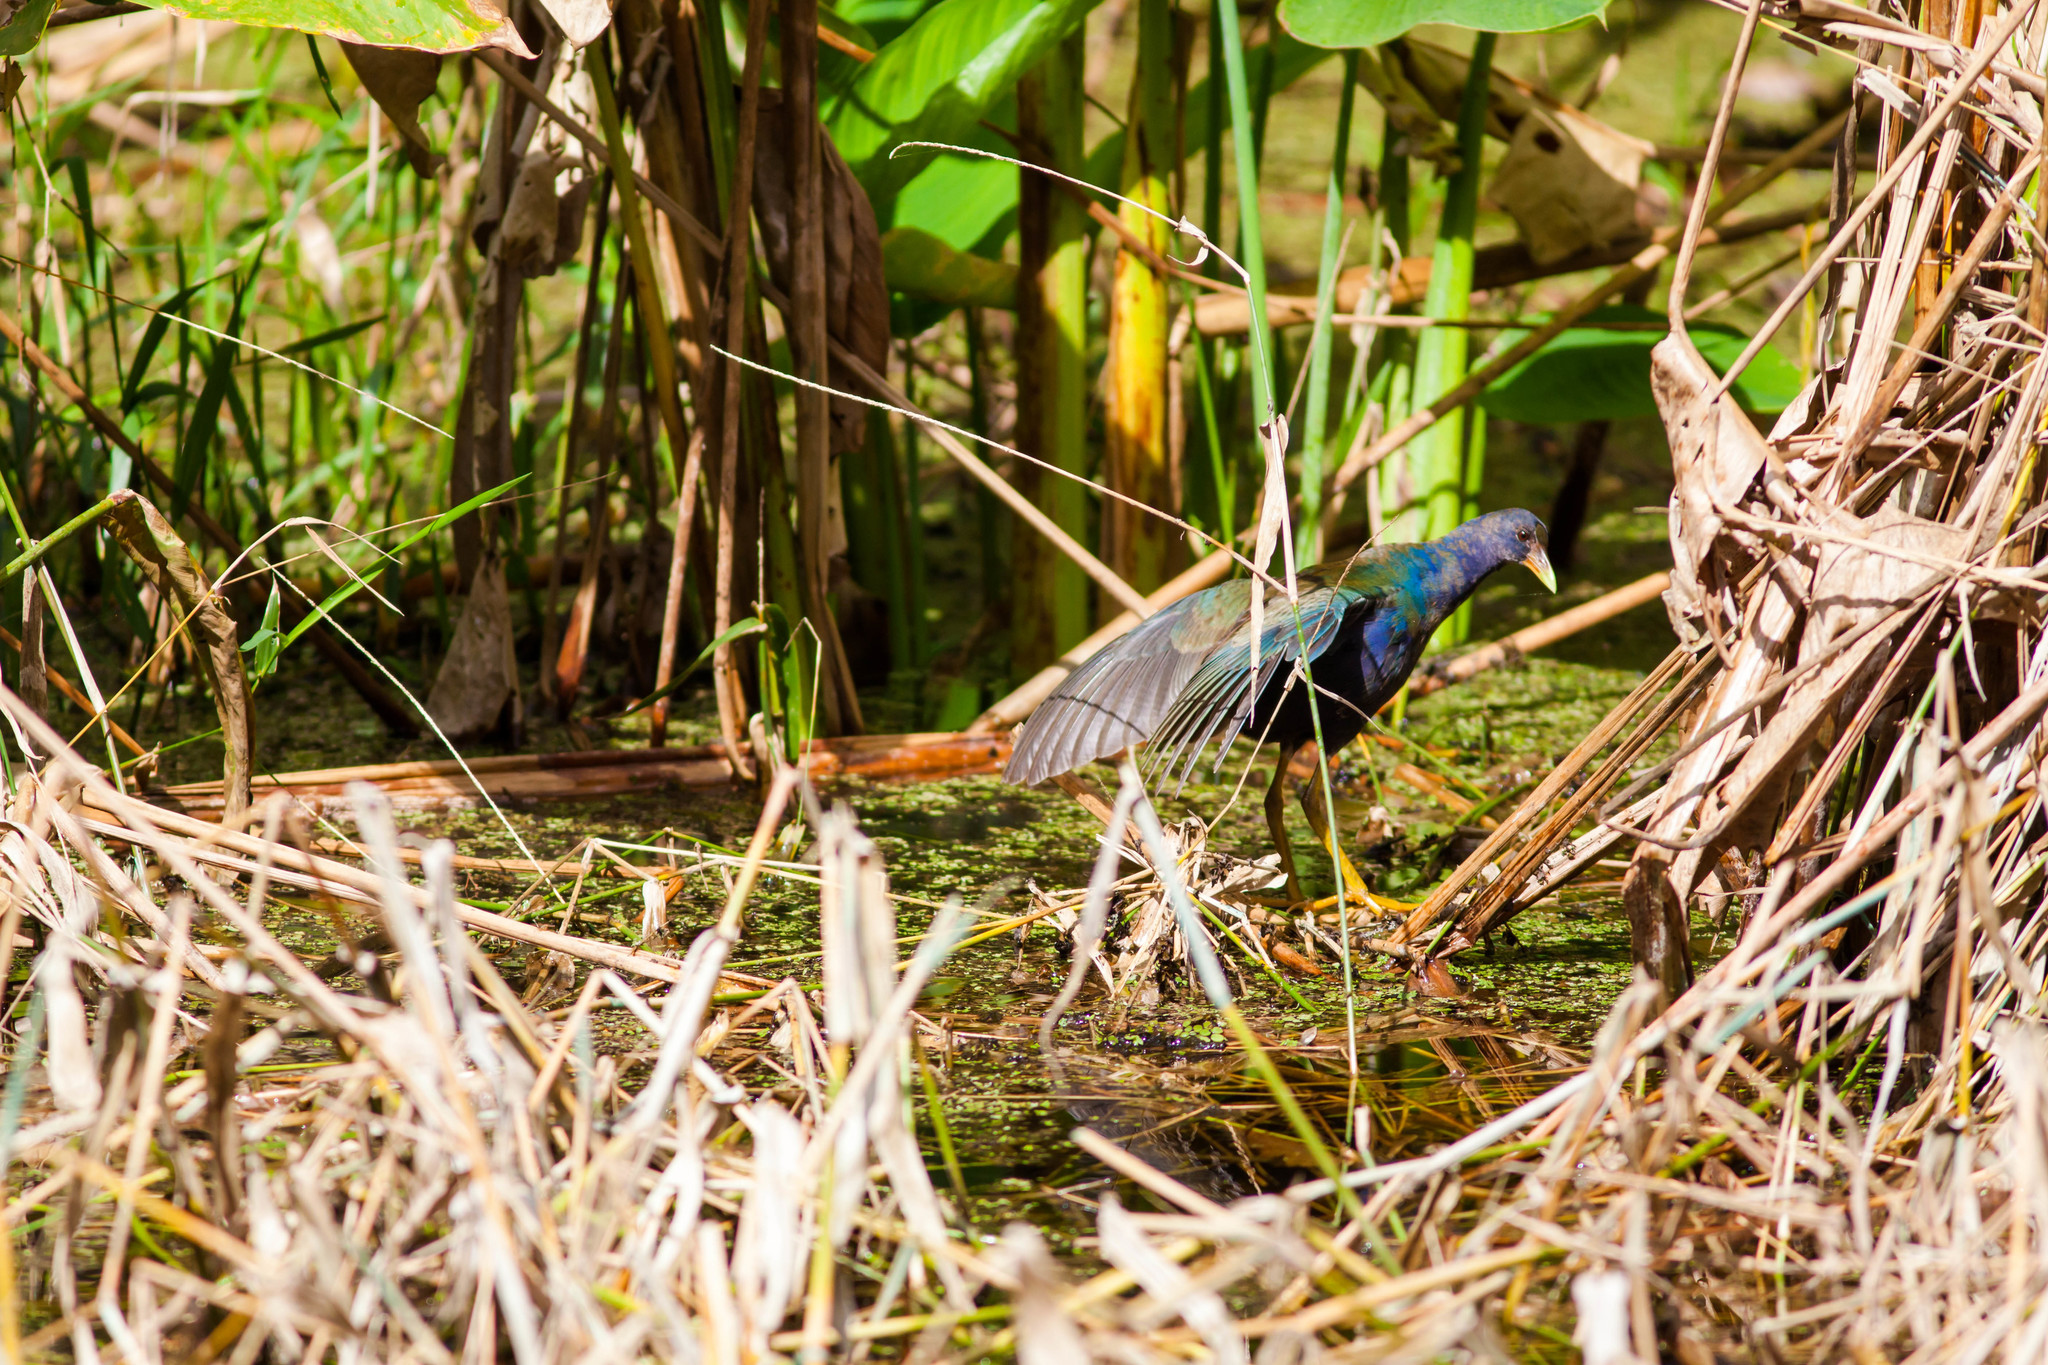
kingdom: Animalia
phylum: Chordata
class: Aves
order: Gruiformes
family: Rallidae
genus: Porphyrio
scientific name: Porphyrio martinica
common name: Purple gallinule
